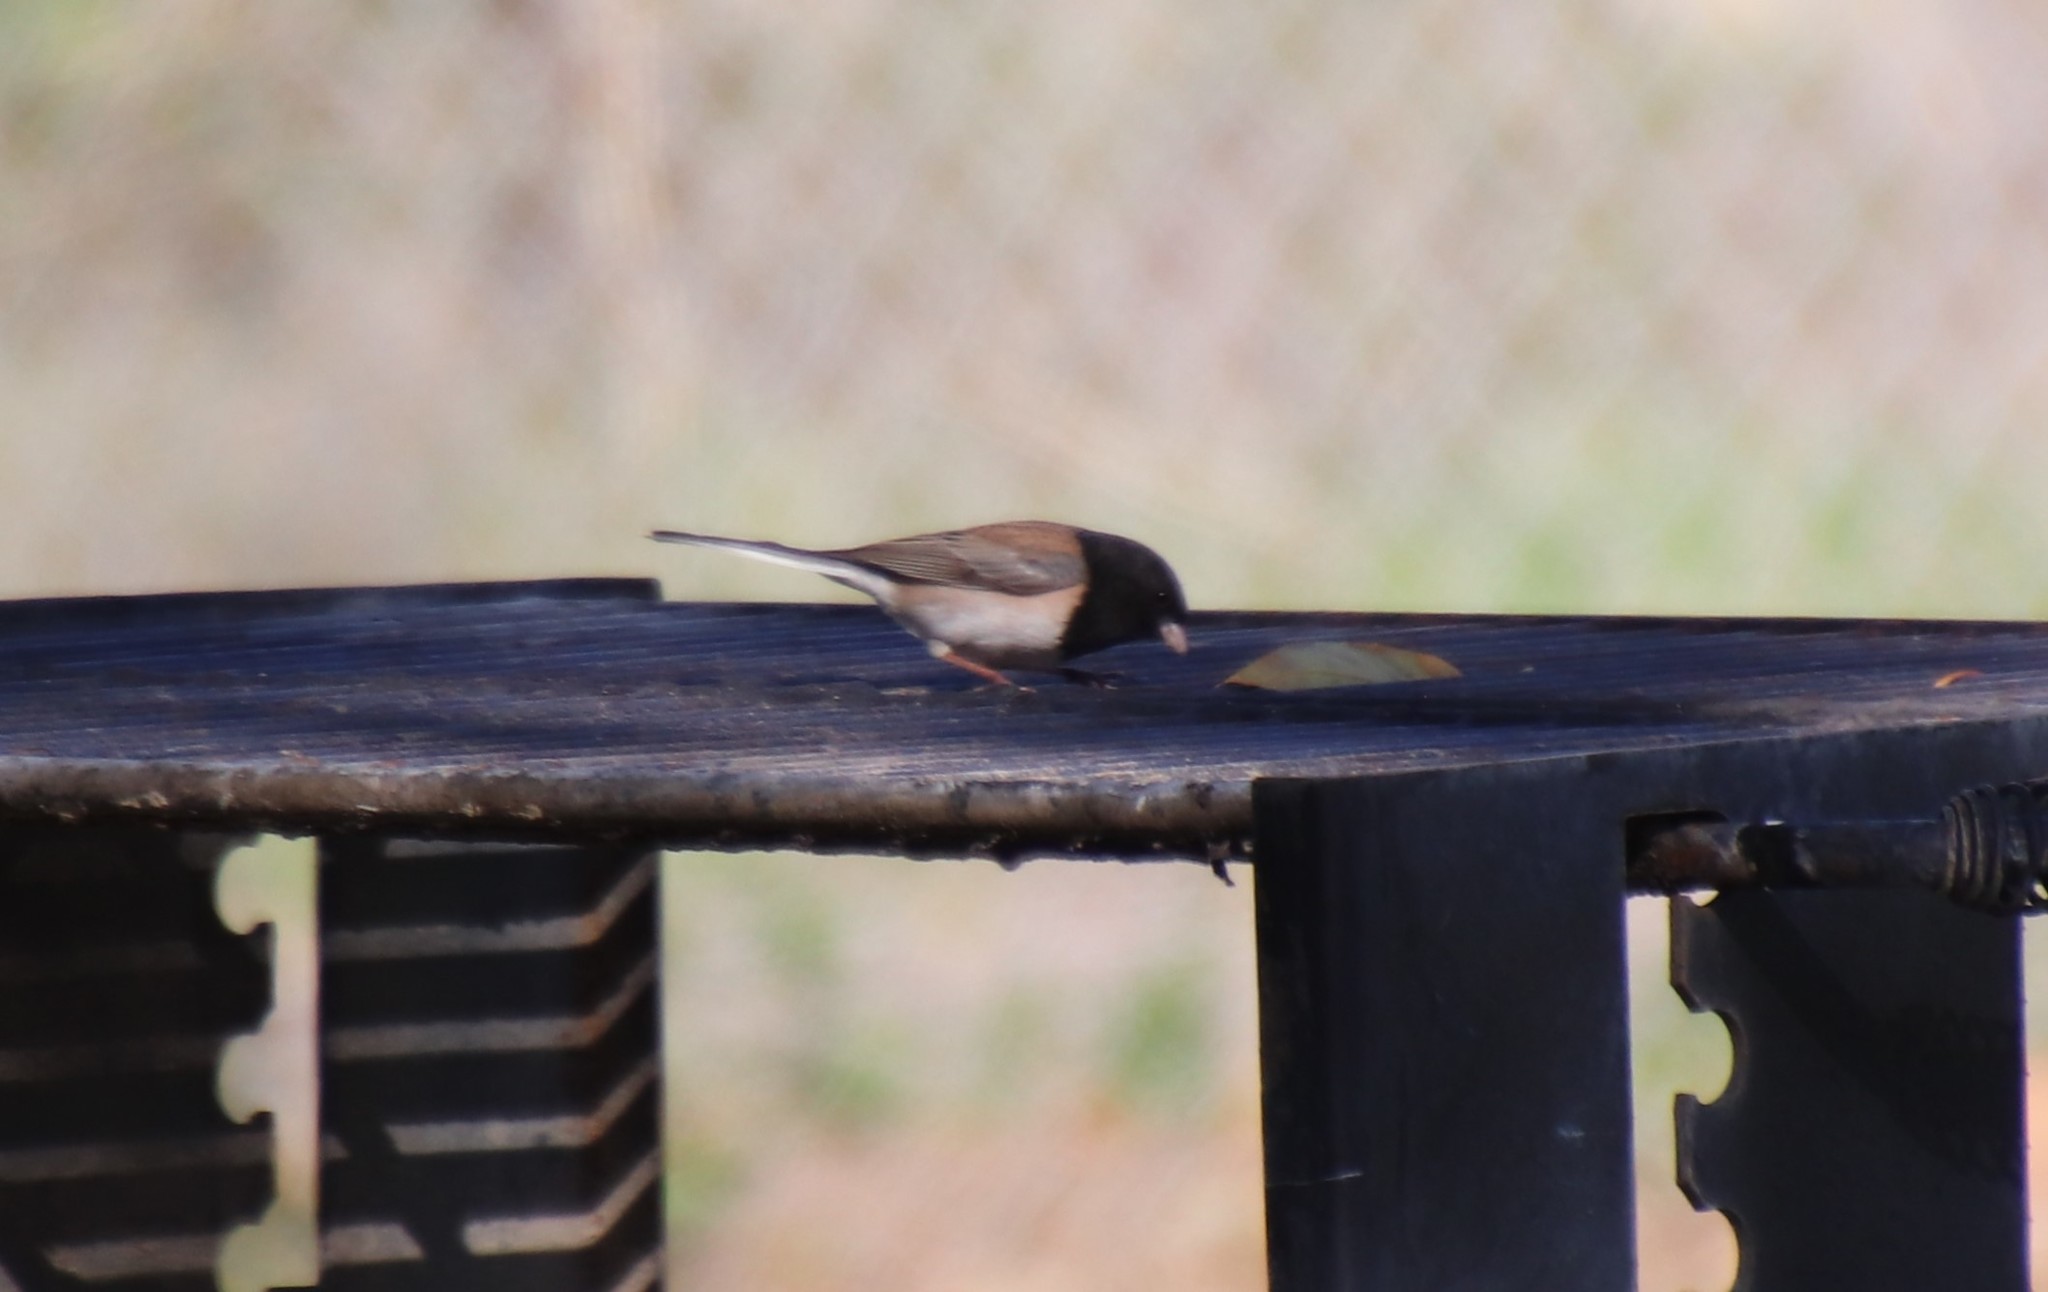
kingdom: Animalia
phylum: Chordata
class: Aves
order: Passeriformes
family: Passerellidae
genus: Junco
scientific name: Junco hyemalis
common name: Dark-eyed junco
